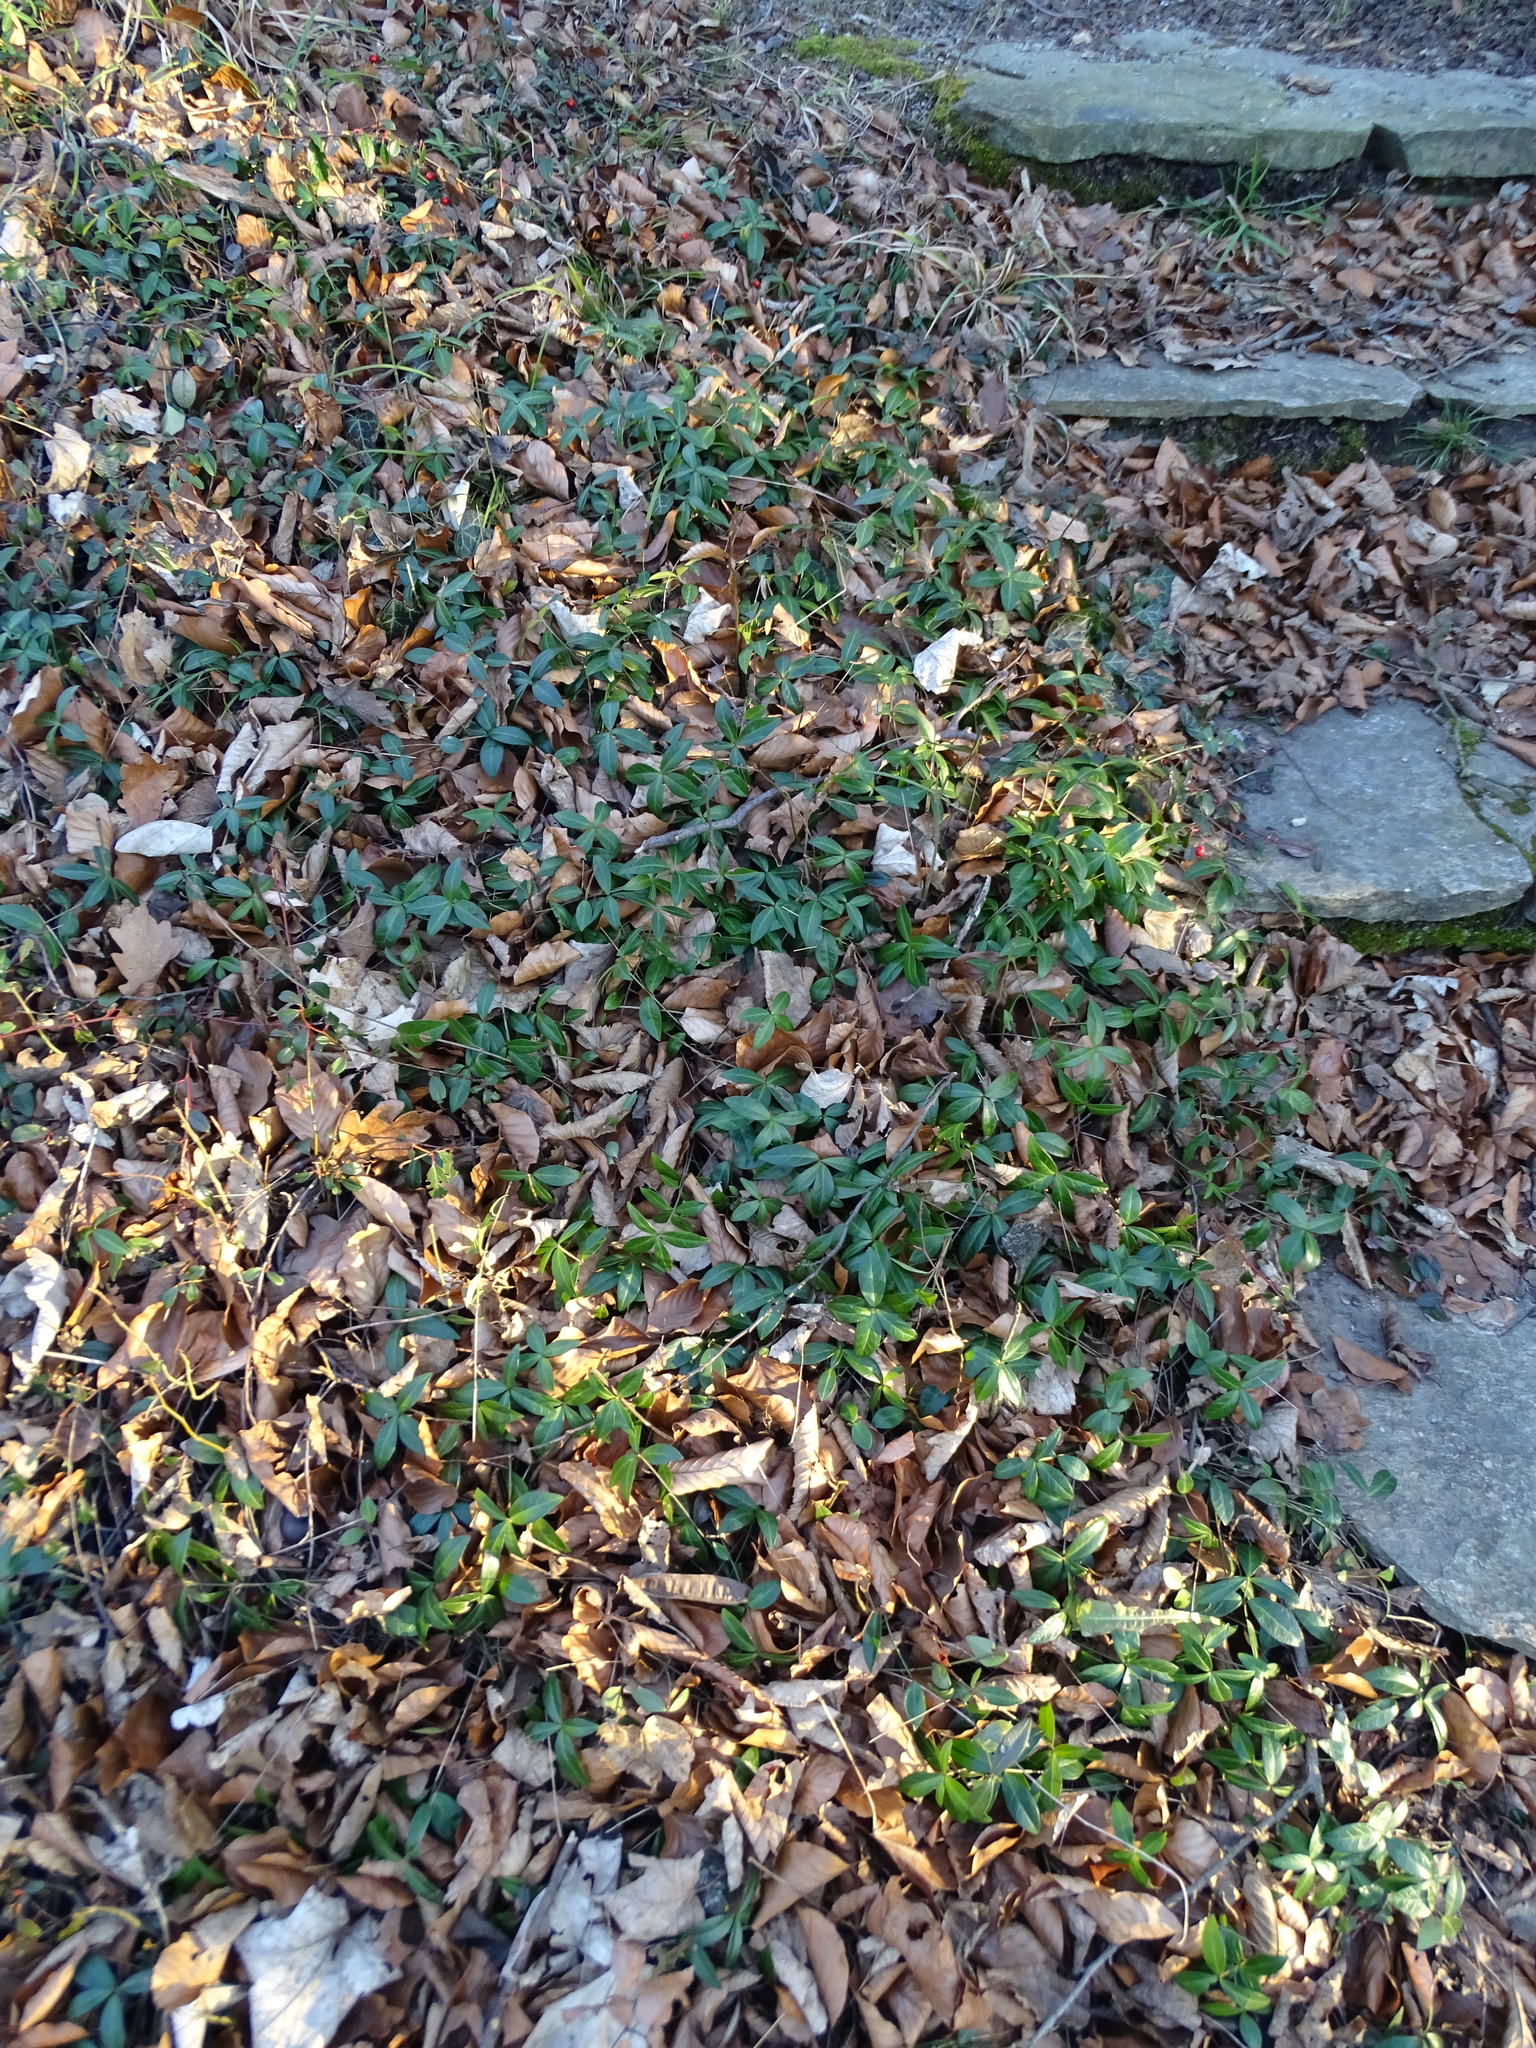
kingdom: Plantae
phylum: Tracheophyta
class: Magnoliopsida
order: Gentianales
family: Apocynaceae
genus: Vinca
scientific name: Vinca minor
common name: Lesser periwinkle
